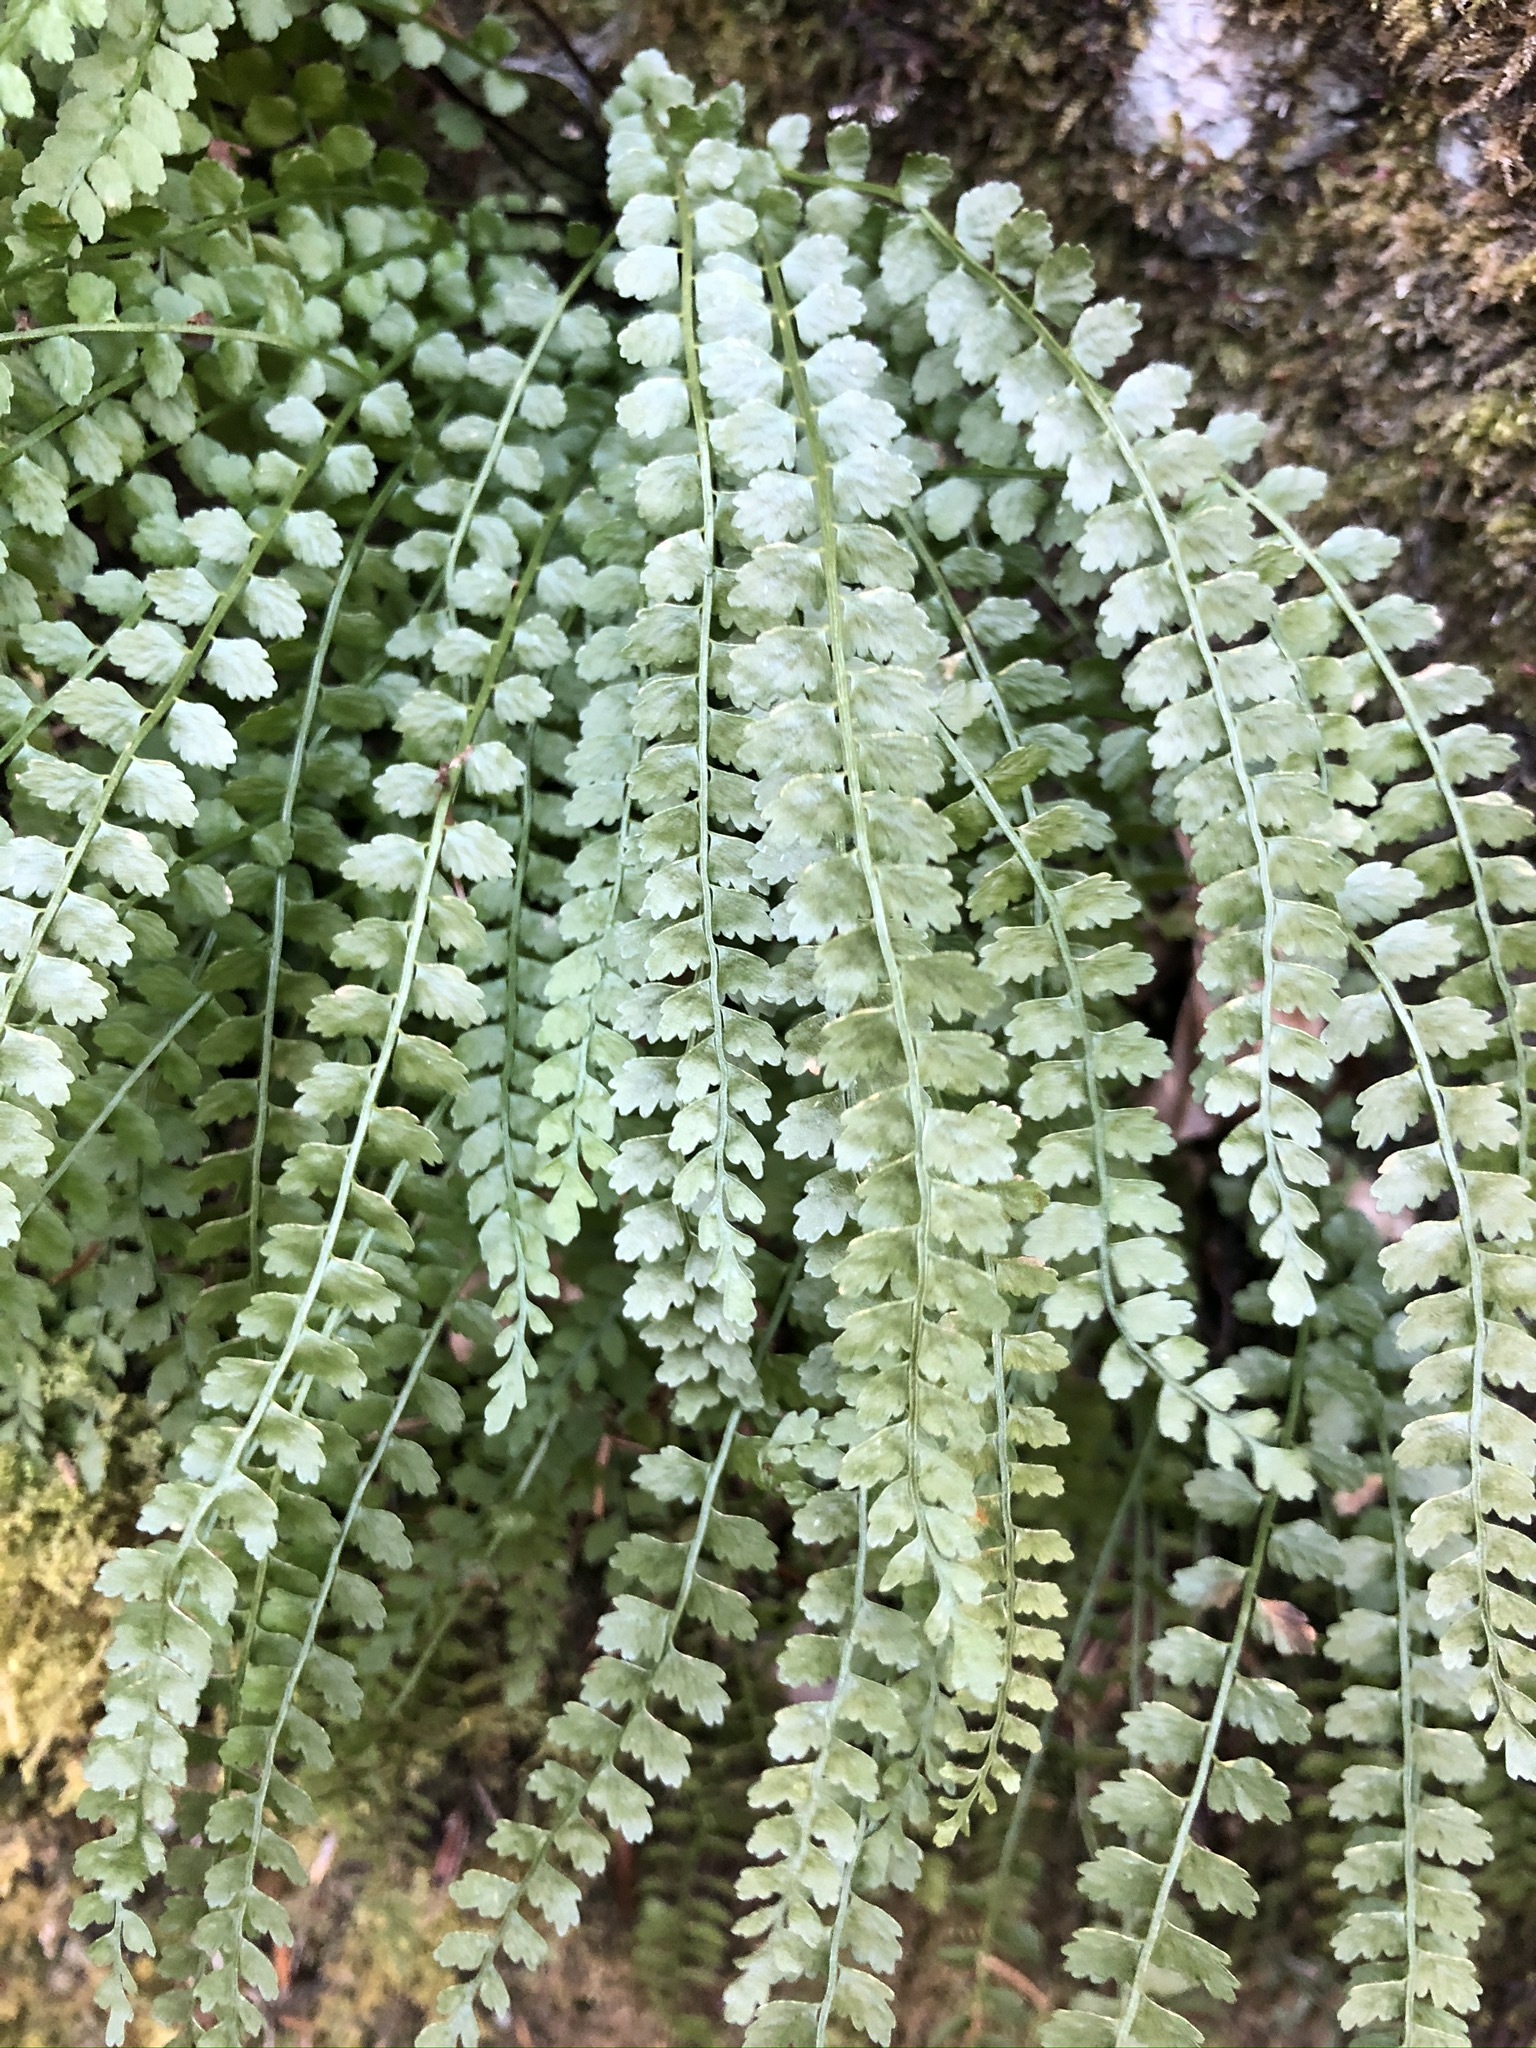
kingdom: Plantae
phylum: Tracheophyta
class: Polypodiopsida
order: Polypodiales
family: Aspleniaceae
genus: Asplenium
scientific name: Asplenium viride
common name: Green spleenwort
